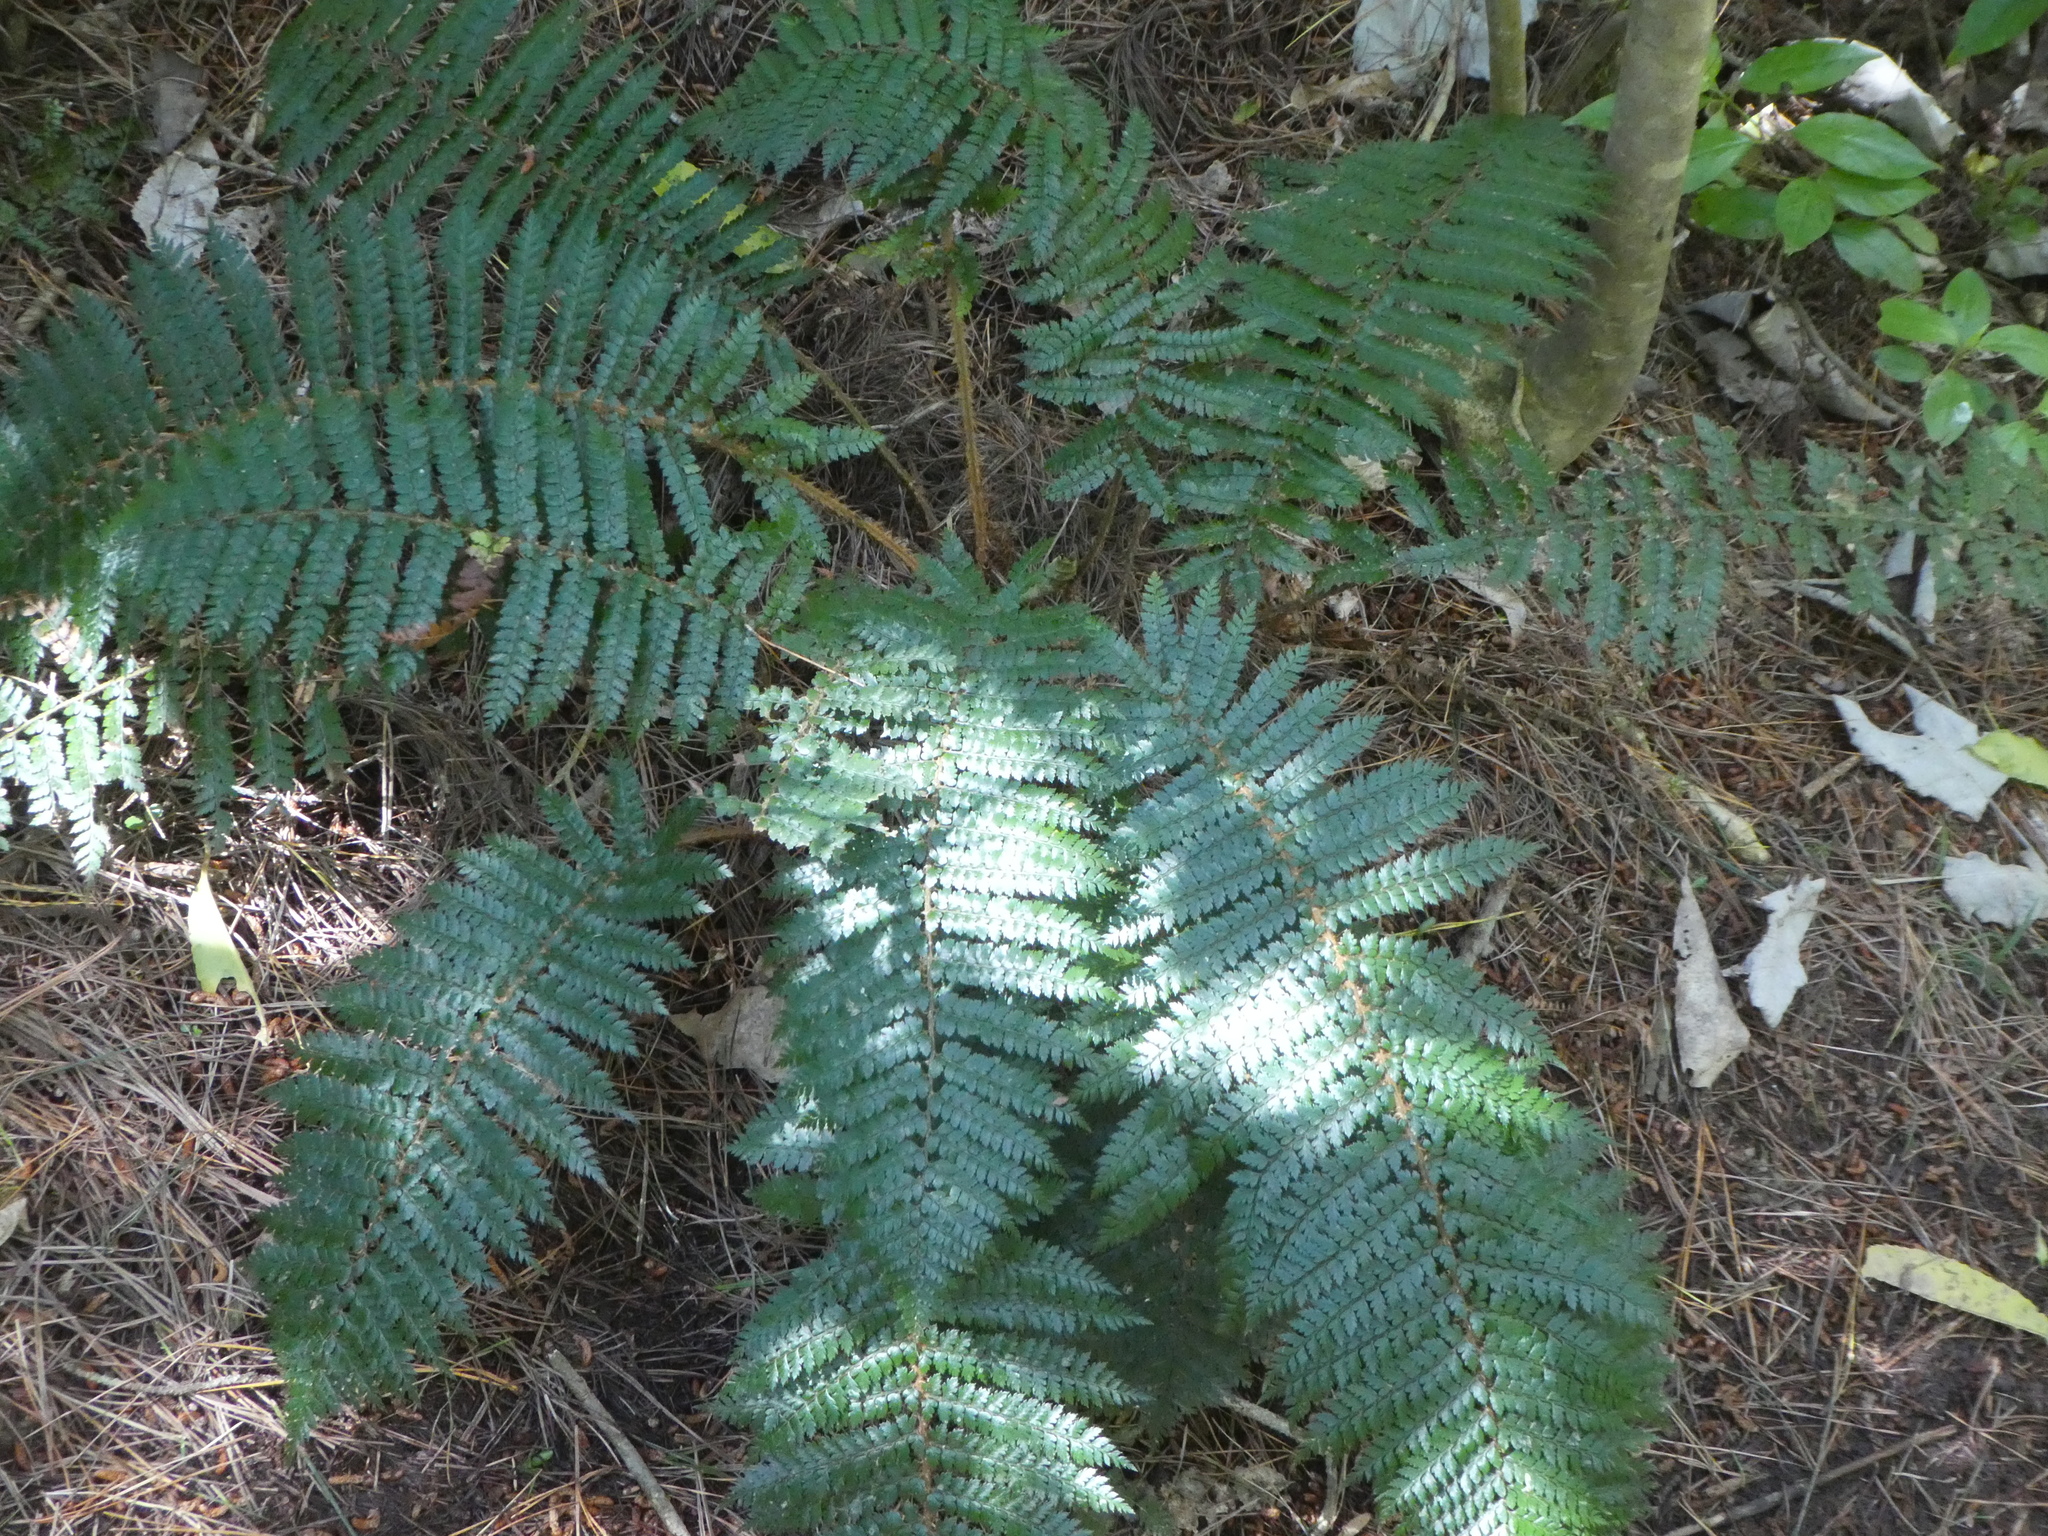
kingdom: Plantae
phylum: Tracheophyta
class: Polypodiopsida
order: Polypodiales
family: Dryopteridaceae
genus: Polystichum
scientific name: Polystichum vestitum
